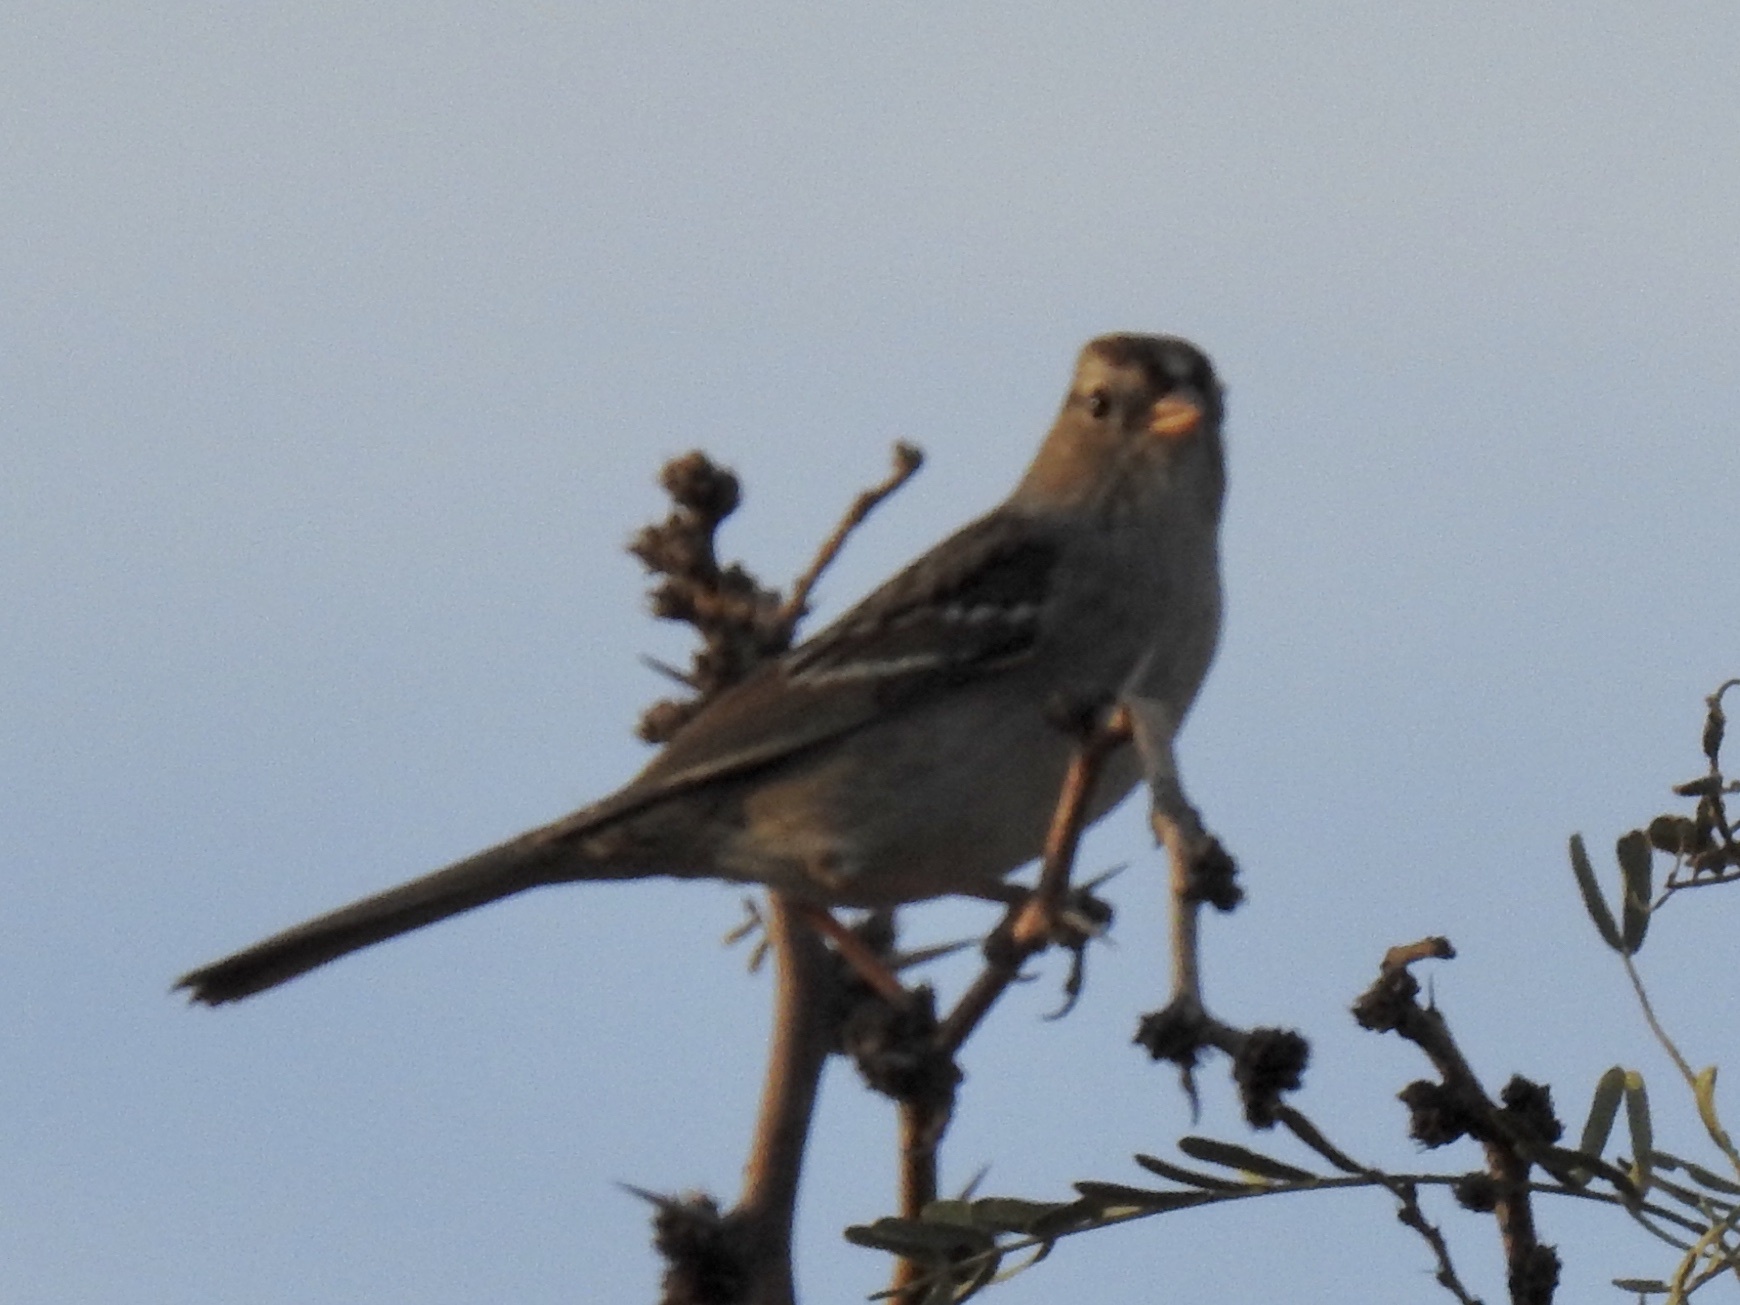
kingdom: Animalia
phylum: Chordata
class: Aves
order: Passeriformes
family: Passerellidae
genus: Zonotrichia
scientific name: Zonotrichia leucophrys
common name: White-crowned sparrow
